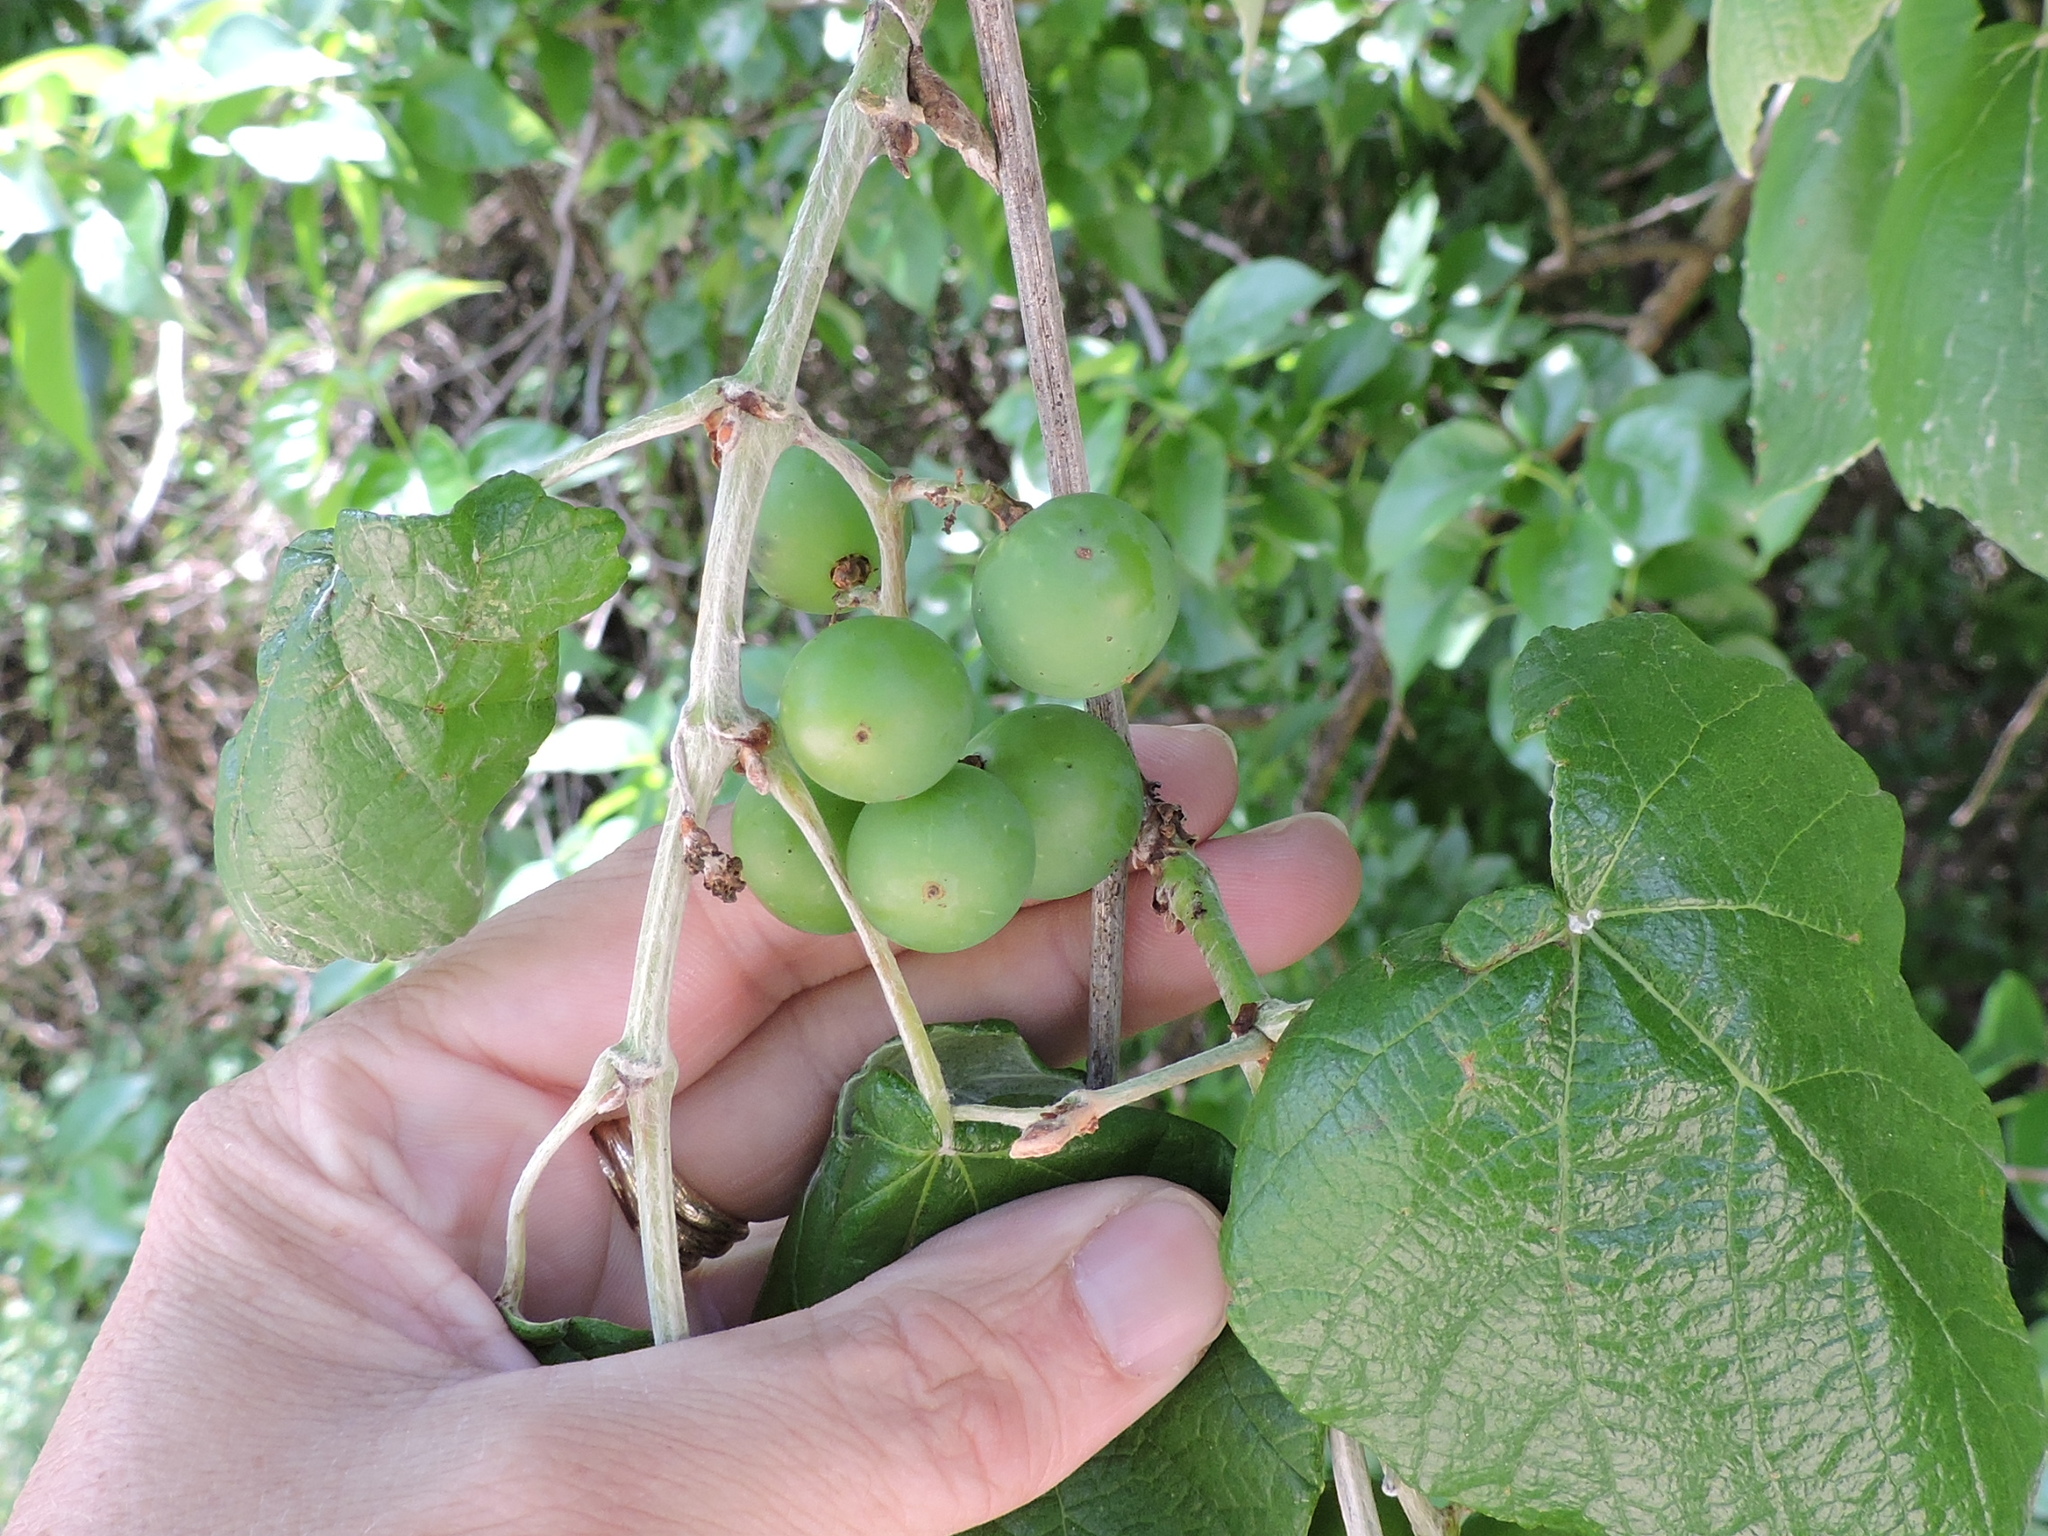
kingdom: Plantae
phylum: Tracheophyta
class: Magnoliopsida
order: Vitales
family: Vitaceae
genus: Vitis
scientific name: Vitis mustangensis
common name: Mustang grape
